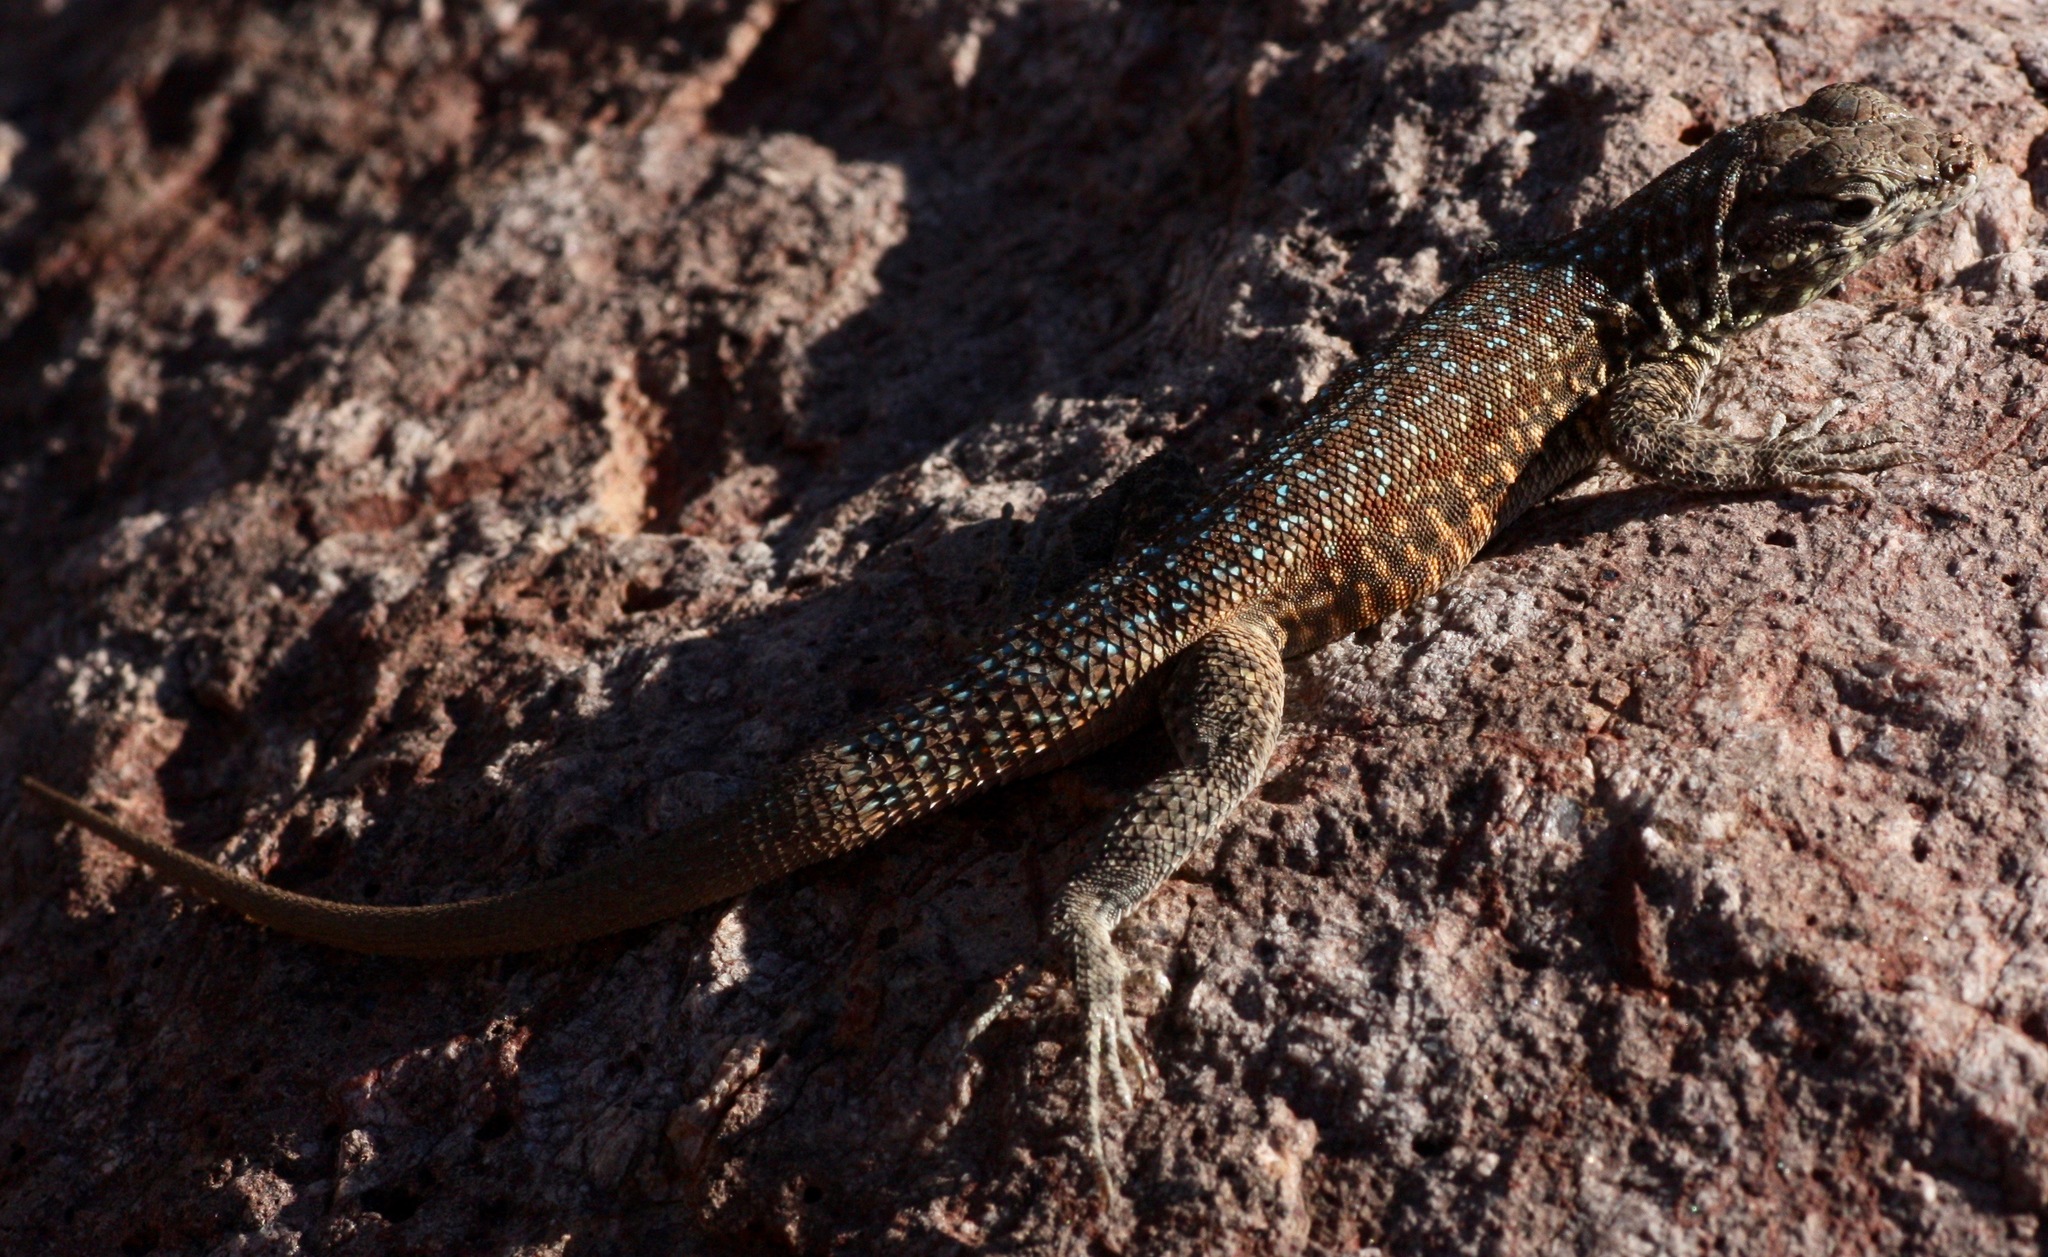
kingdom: Animalia
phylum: Chordata
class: Squamata
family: Phrynosomatidae
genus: Uta
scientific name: Uta stansburiana
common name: Side-blotched lizard
